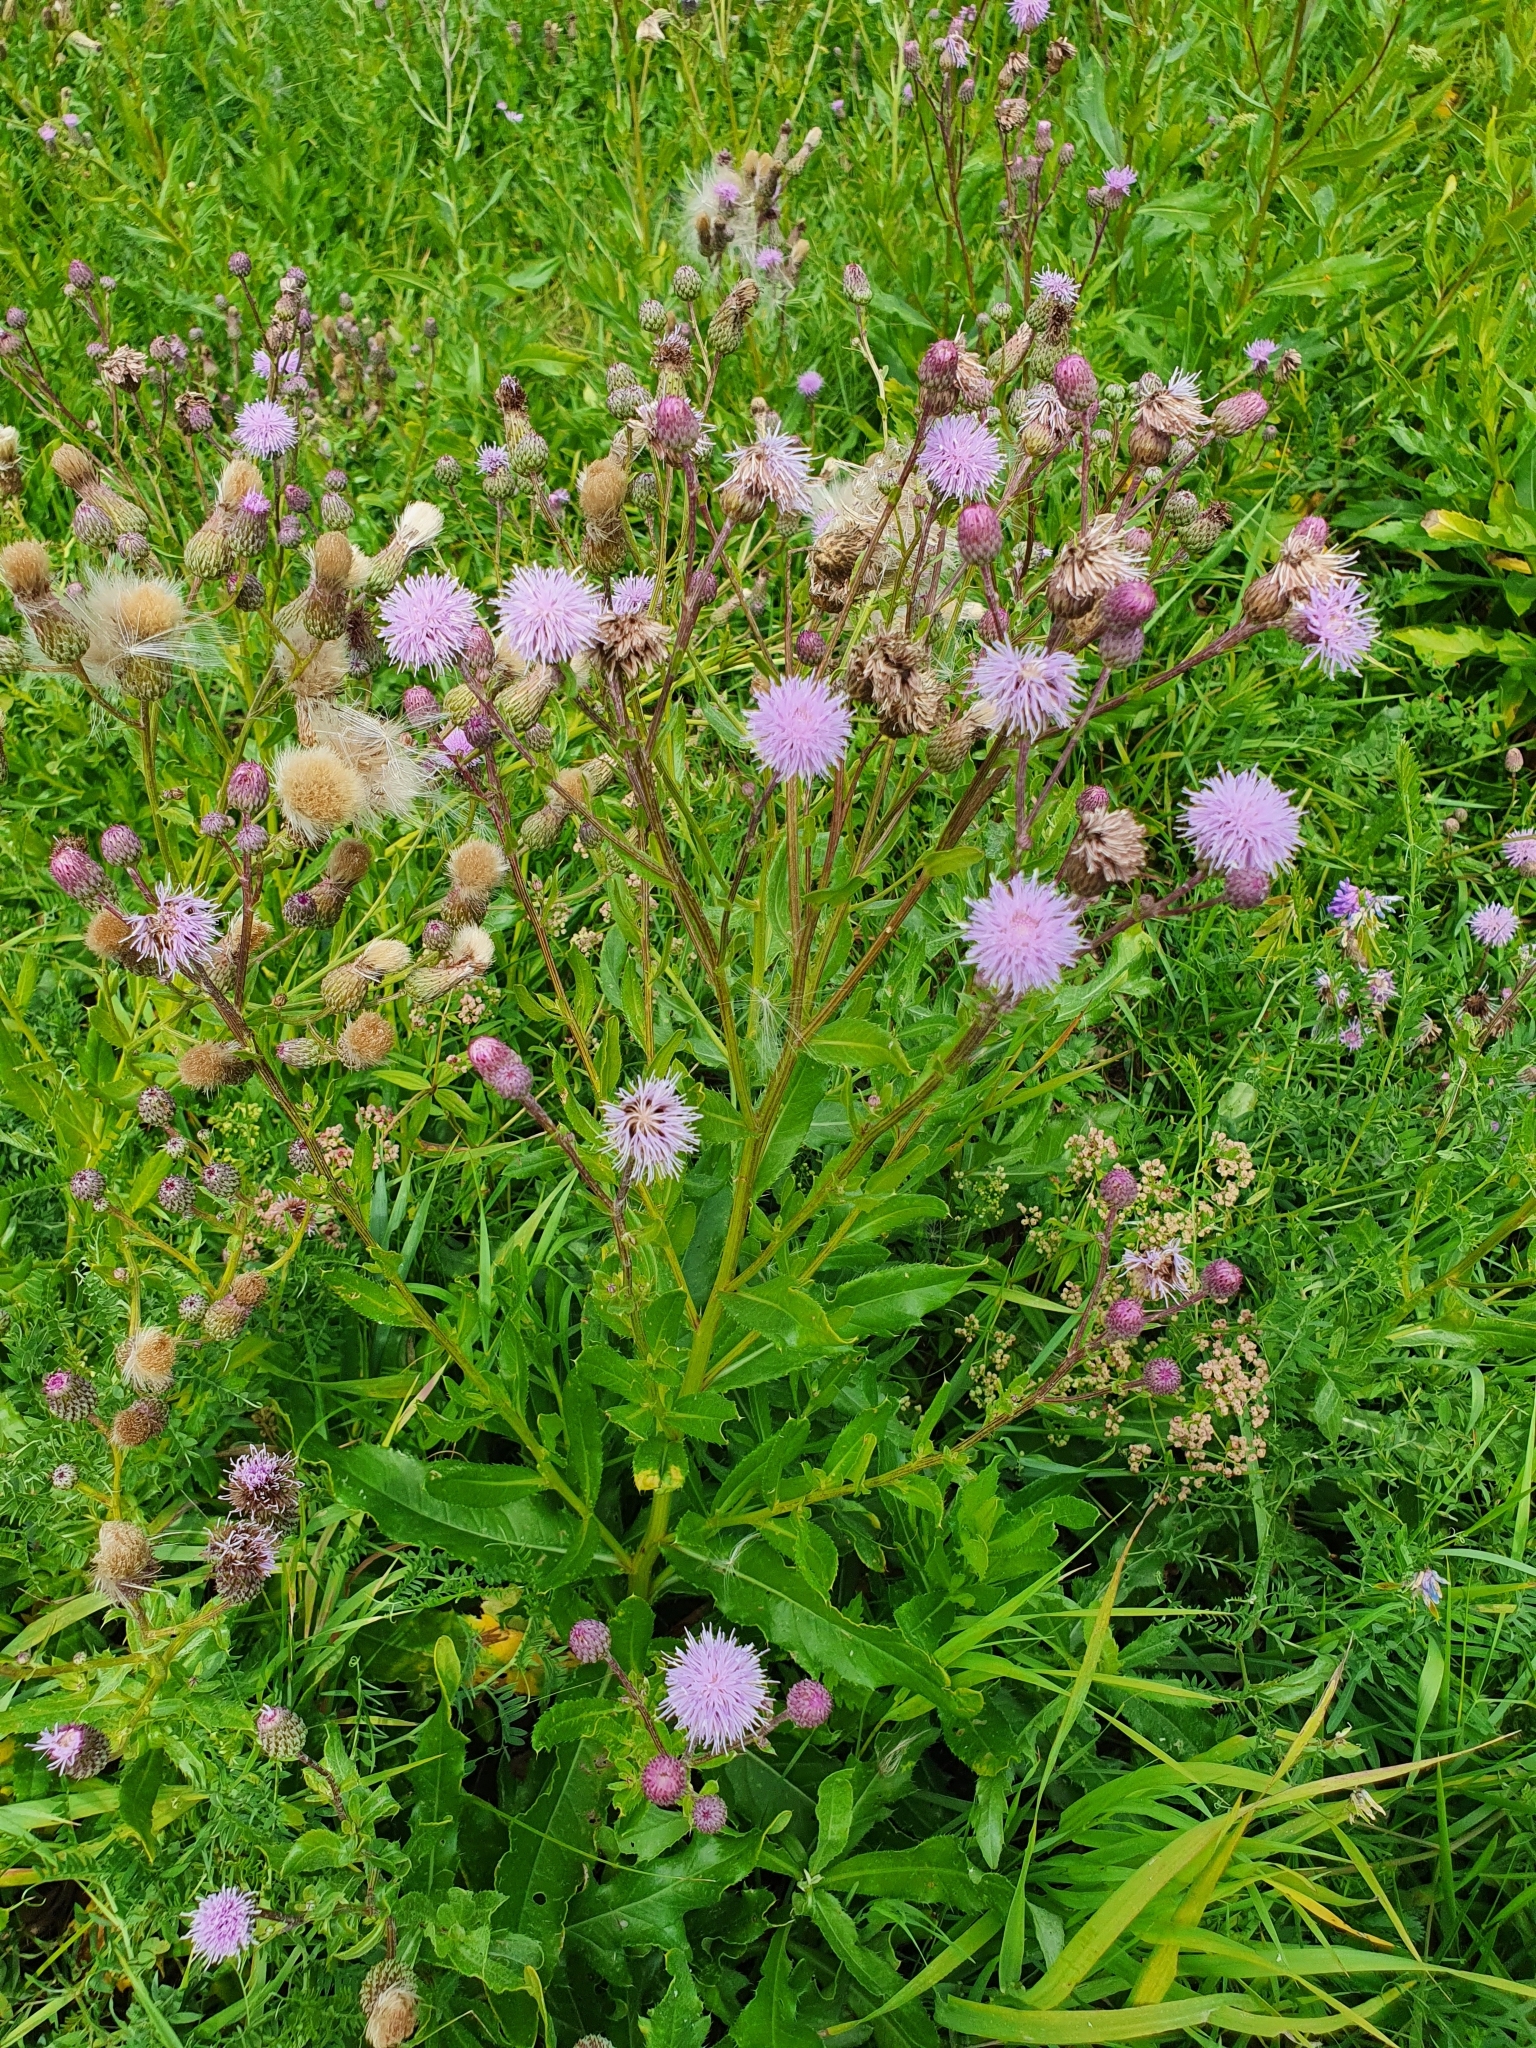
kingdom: Plantae
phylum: Tracheophyta
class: Magnoliopsida
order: Asterales
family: Asteraceae
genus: Cirsium
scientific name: Cirsium arvense
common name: Creeping thistle
